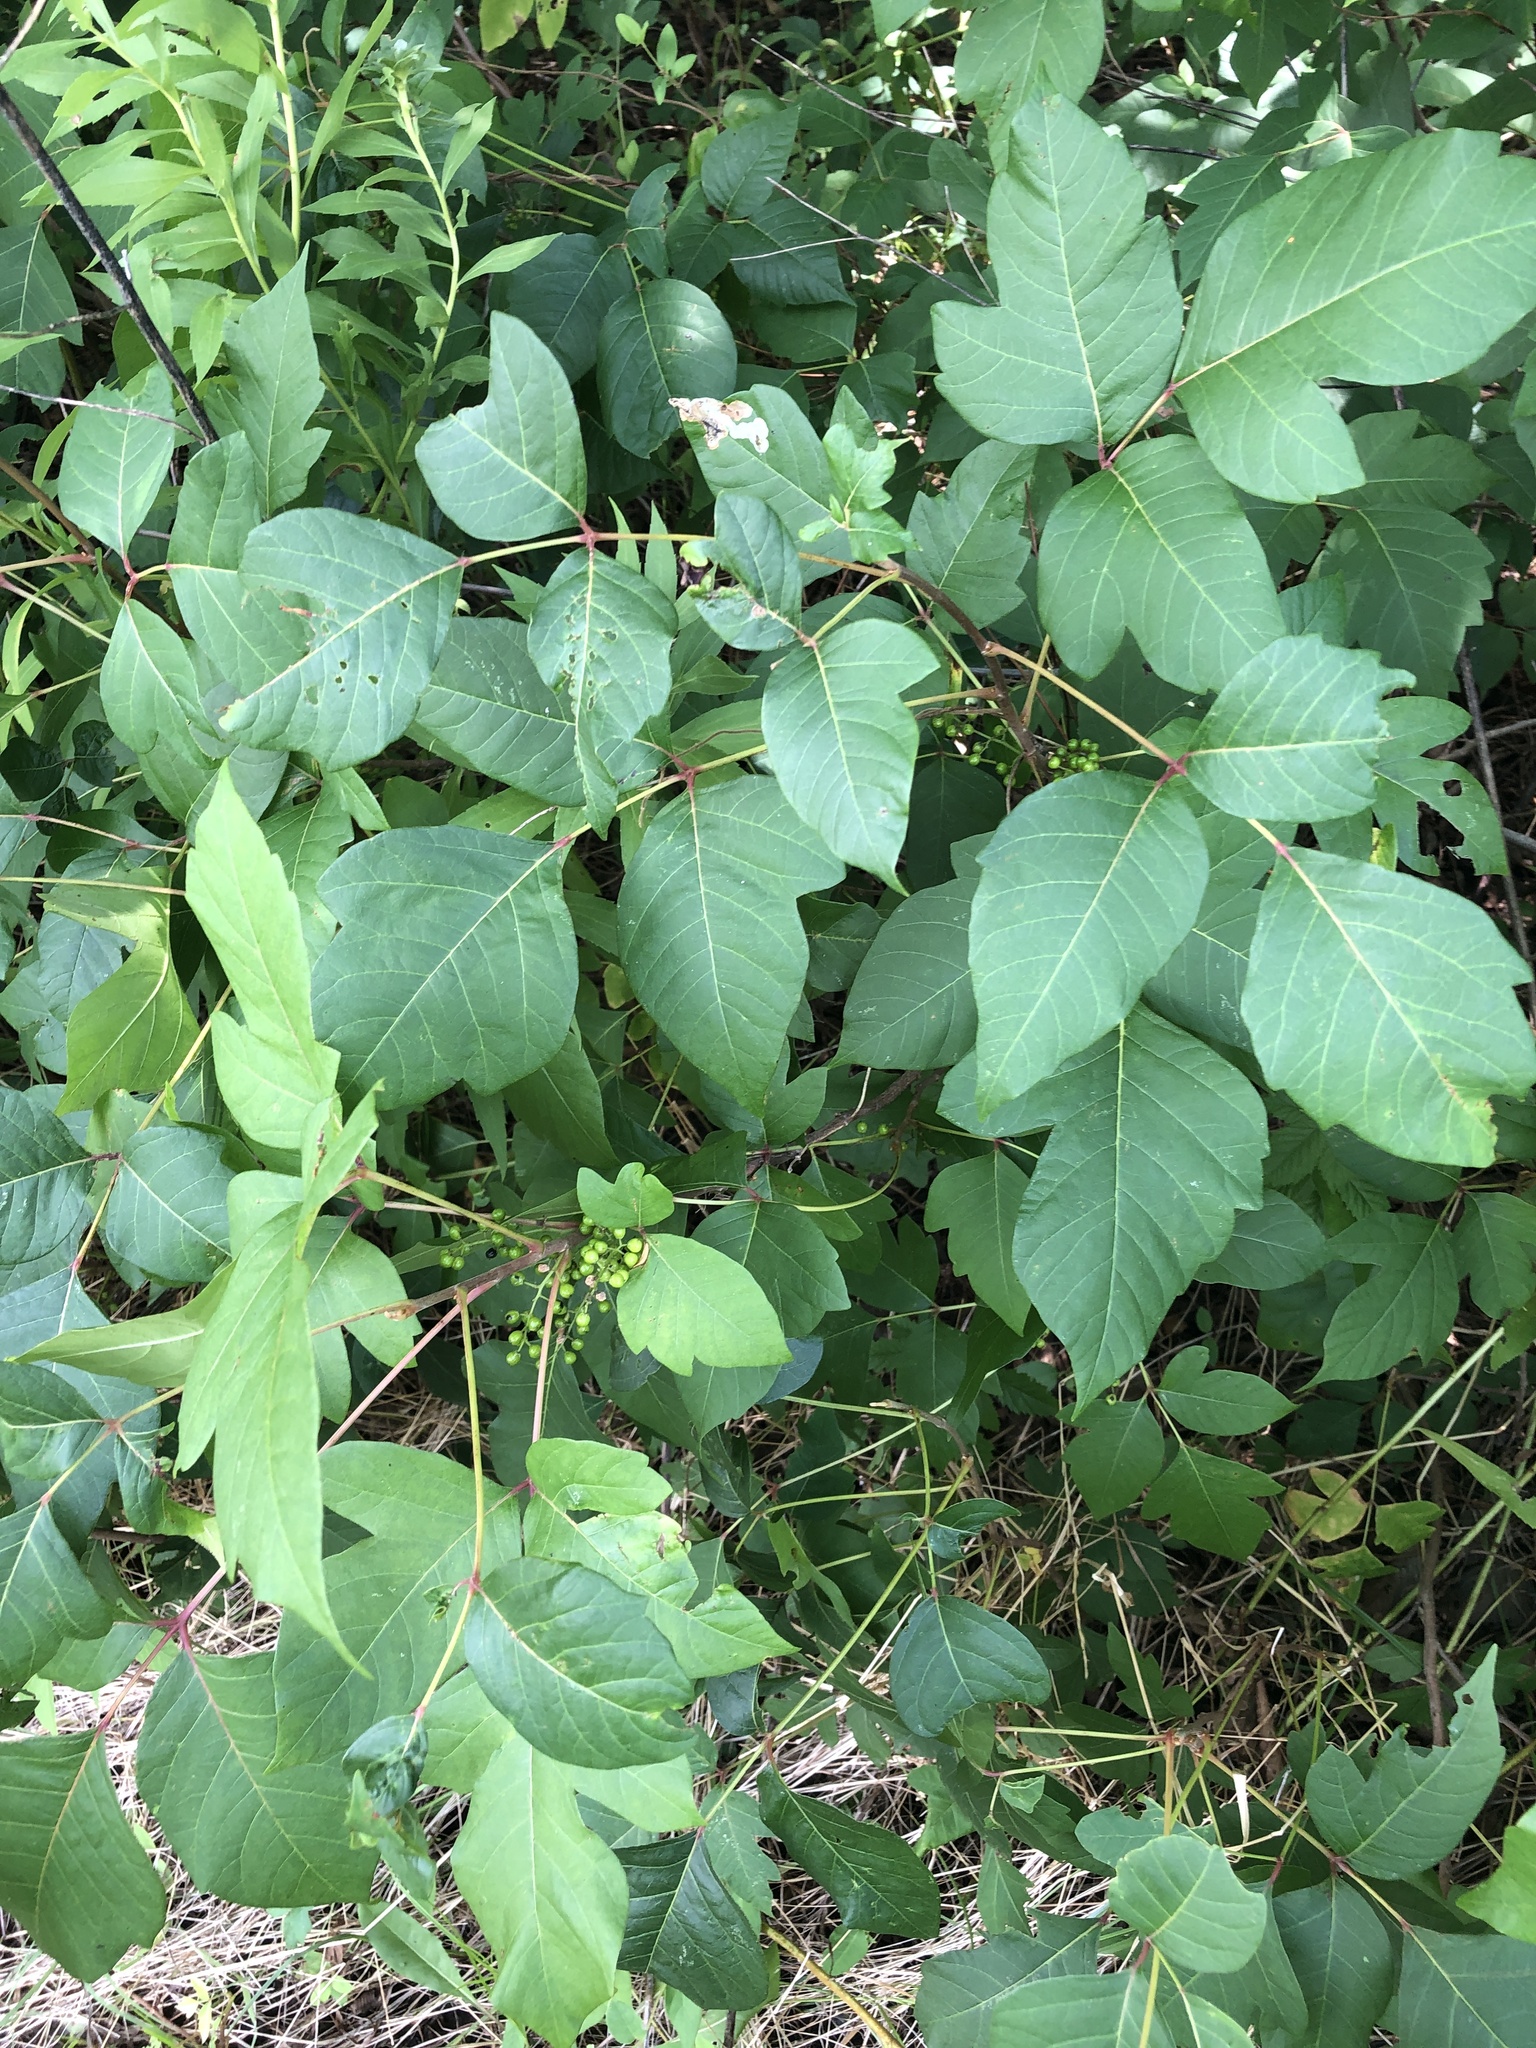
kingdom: Plantae
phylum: Tracheophyta
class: Magnoliopsida
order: Sapindales
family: Anacardiaceae
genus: Toxicodendron
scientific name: Toxicodendron radicans
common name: Poison ivy
